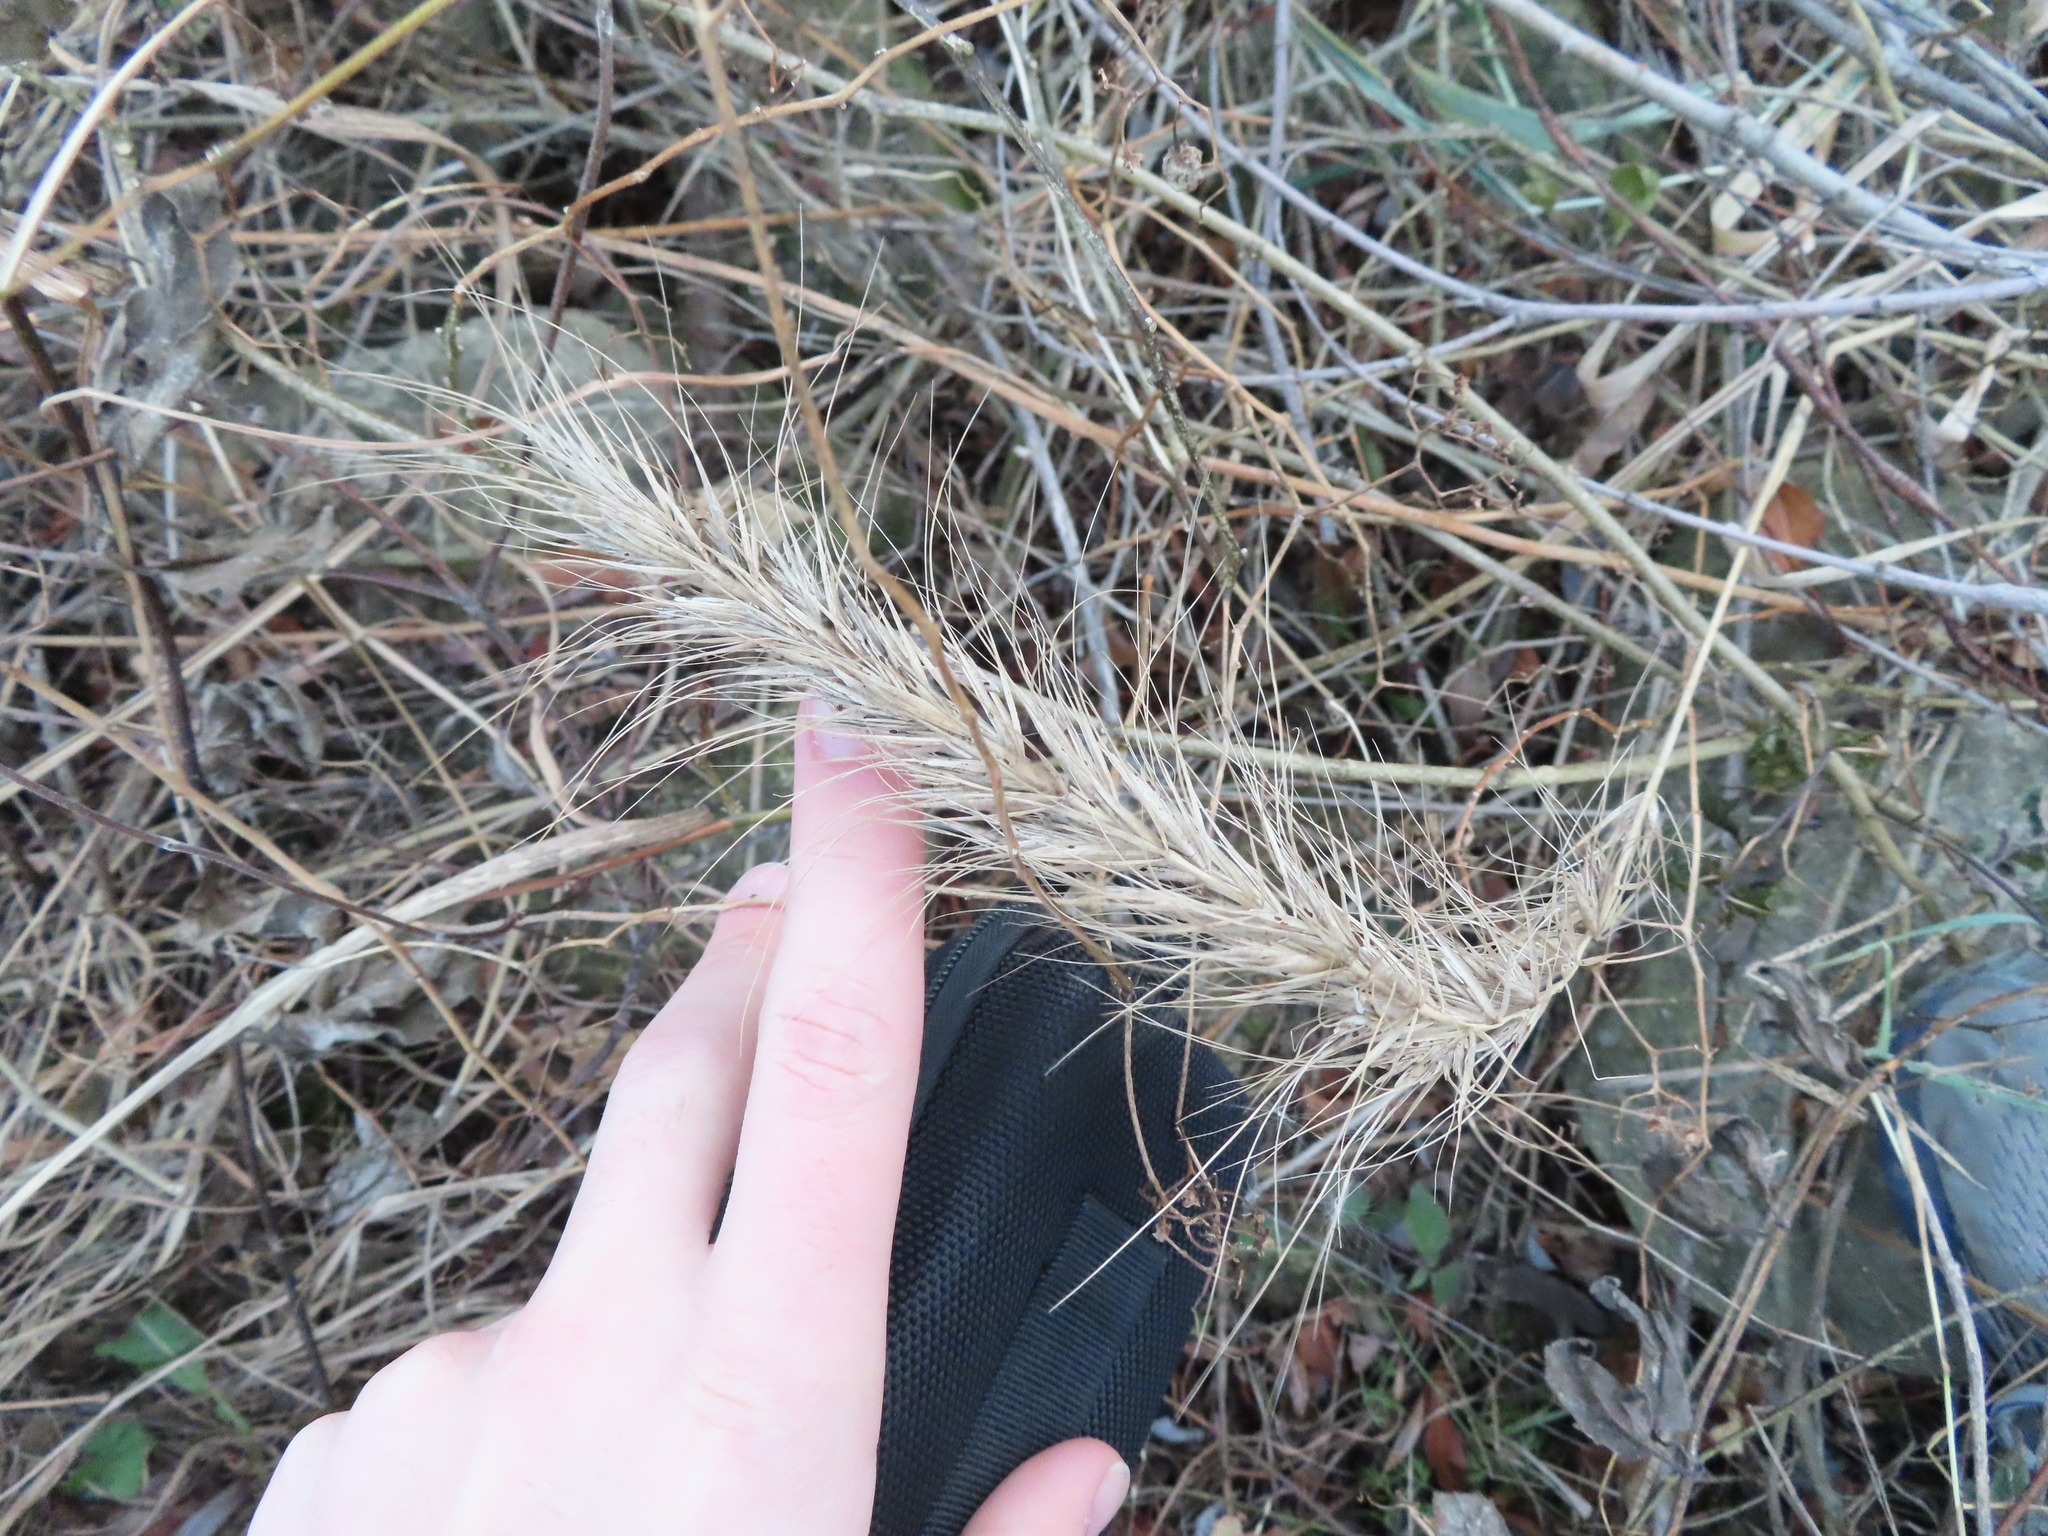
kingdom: Plantae
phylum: Tracheophyta
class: Liliopsida
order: Poales
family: Poaceae
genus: Elymus
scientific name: Elymus canadensis
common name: Canada wild rye
